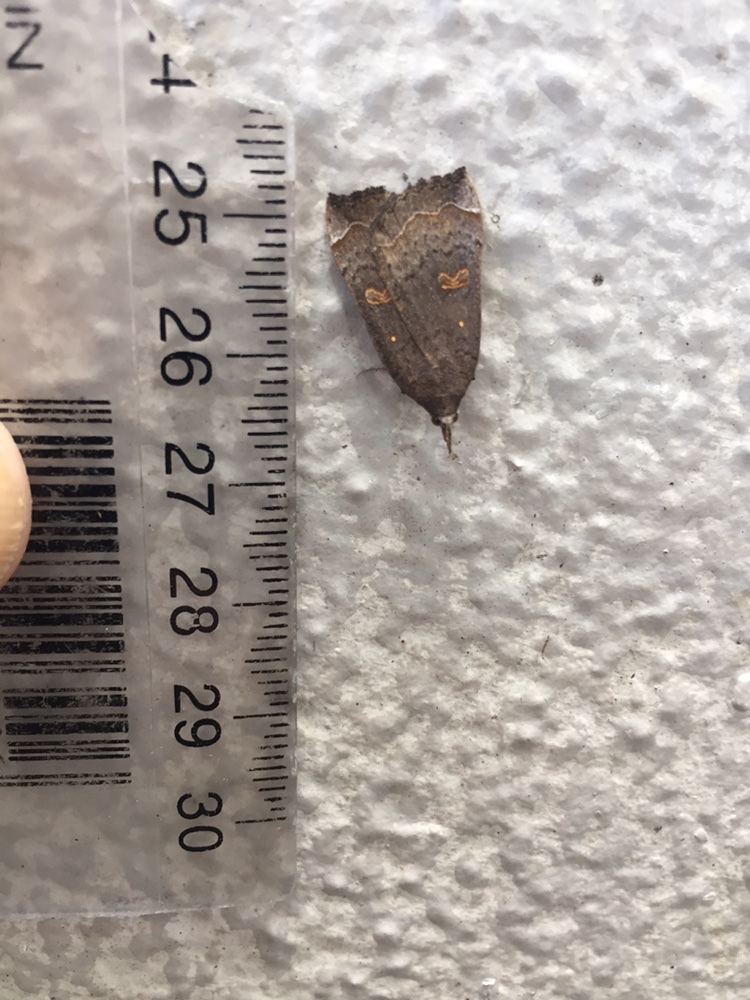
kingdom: Animalia
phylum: Arthropoda
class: Insecta
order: Lepidoptera
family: Erebidae
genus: Rhapsa
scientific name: Rhapsa scotosialis
